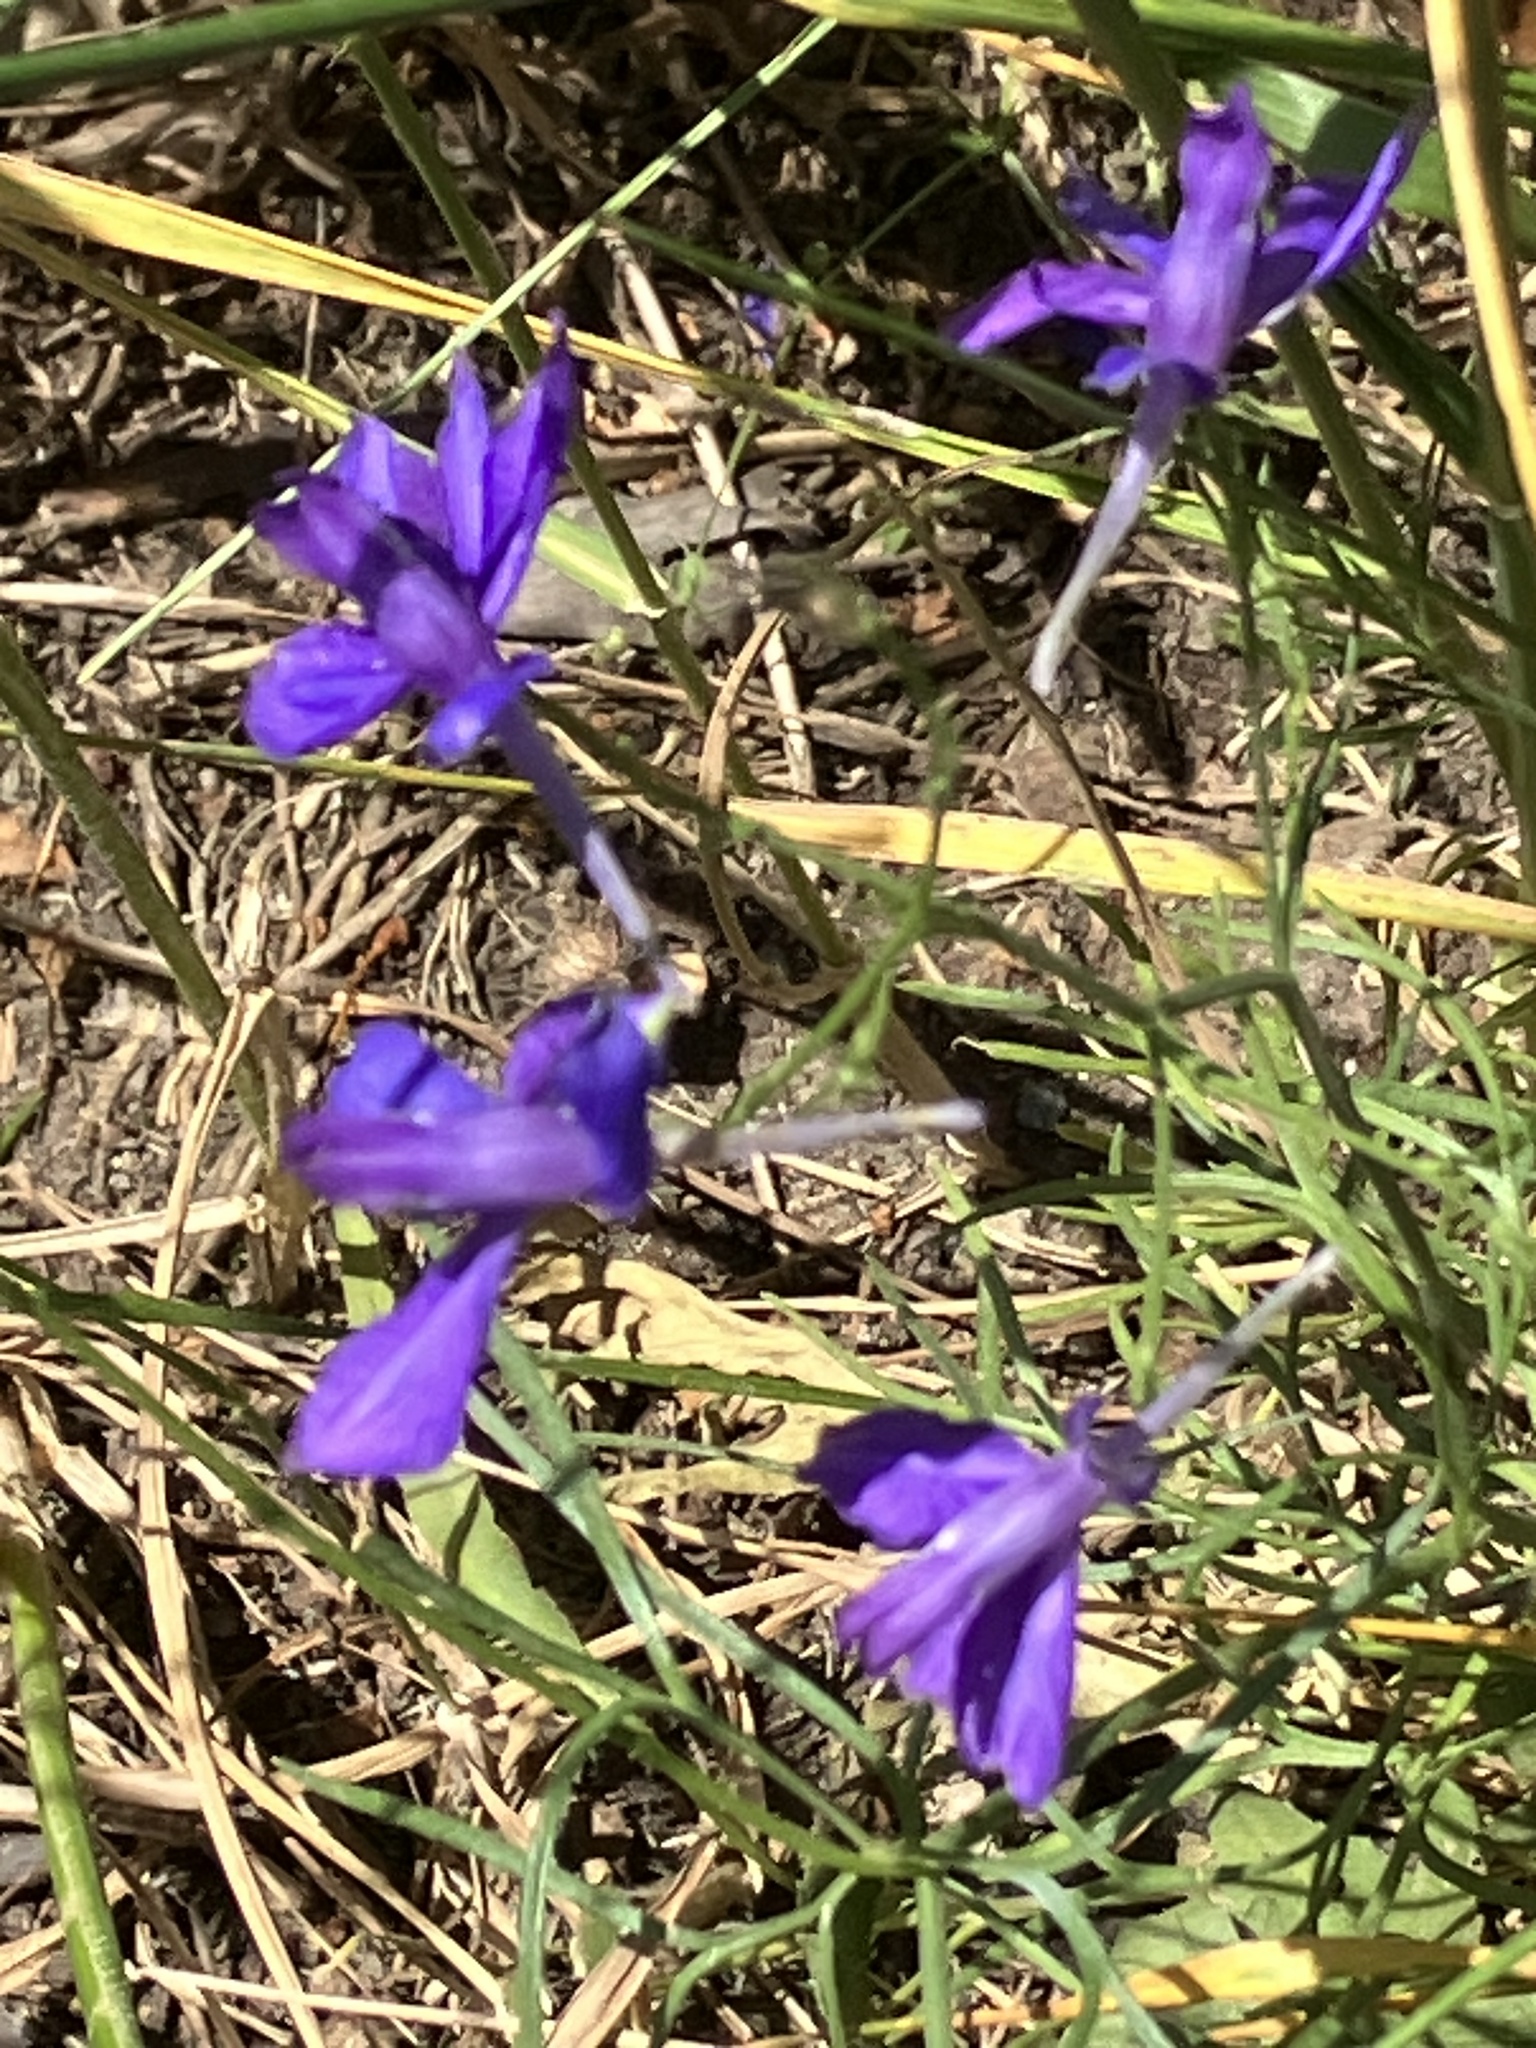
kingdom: Plantae
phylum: Tracheophyta
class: Magnoliopsida
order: Ranunculales
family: Ranunculaceae
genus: Delphinium
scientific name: Delphinium consolida
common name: Branching larkspur
